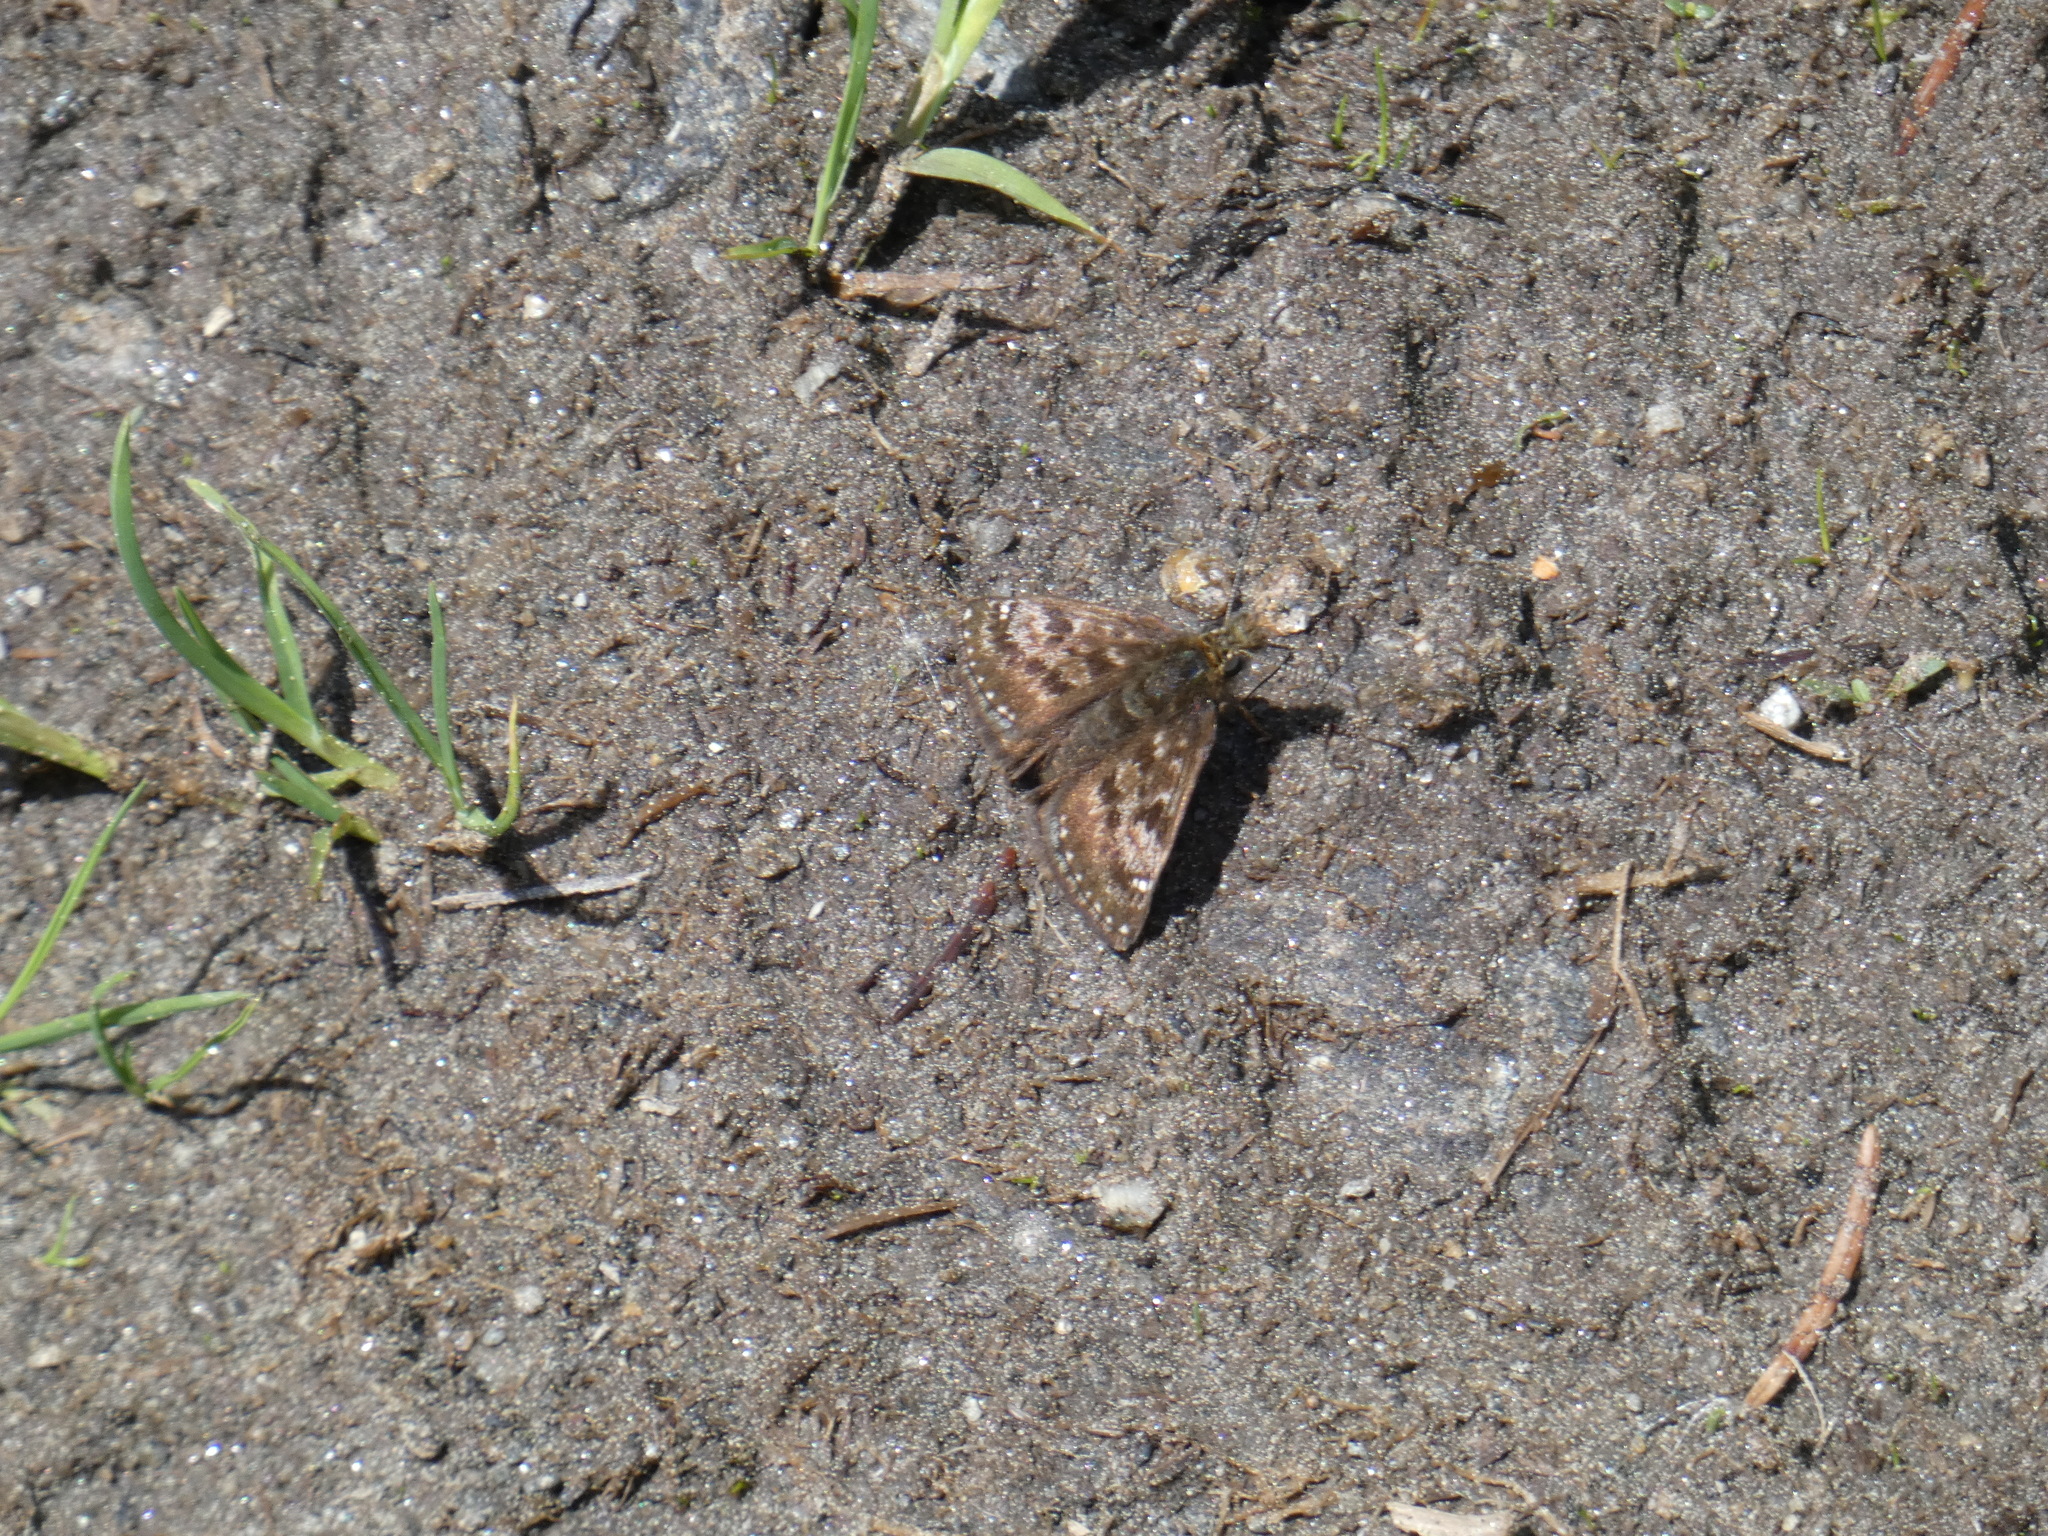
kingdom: Animalia
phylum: Arthropoda
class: Insecta
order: Lepidoptera
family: Hesperiidae
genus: Erynnis
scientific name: Erynnis tages
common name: Dingy skipper
